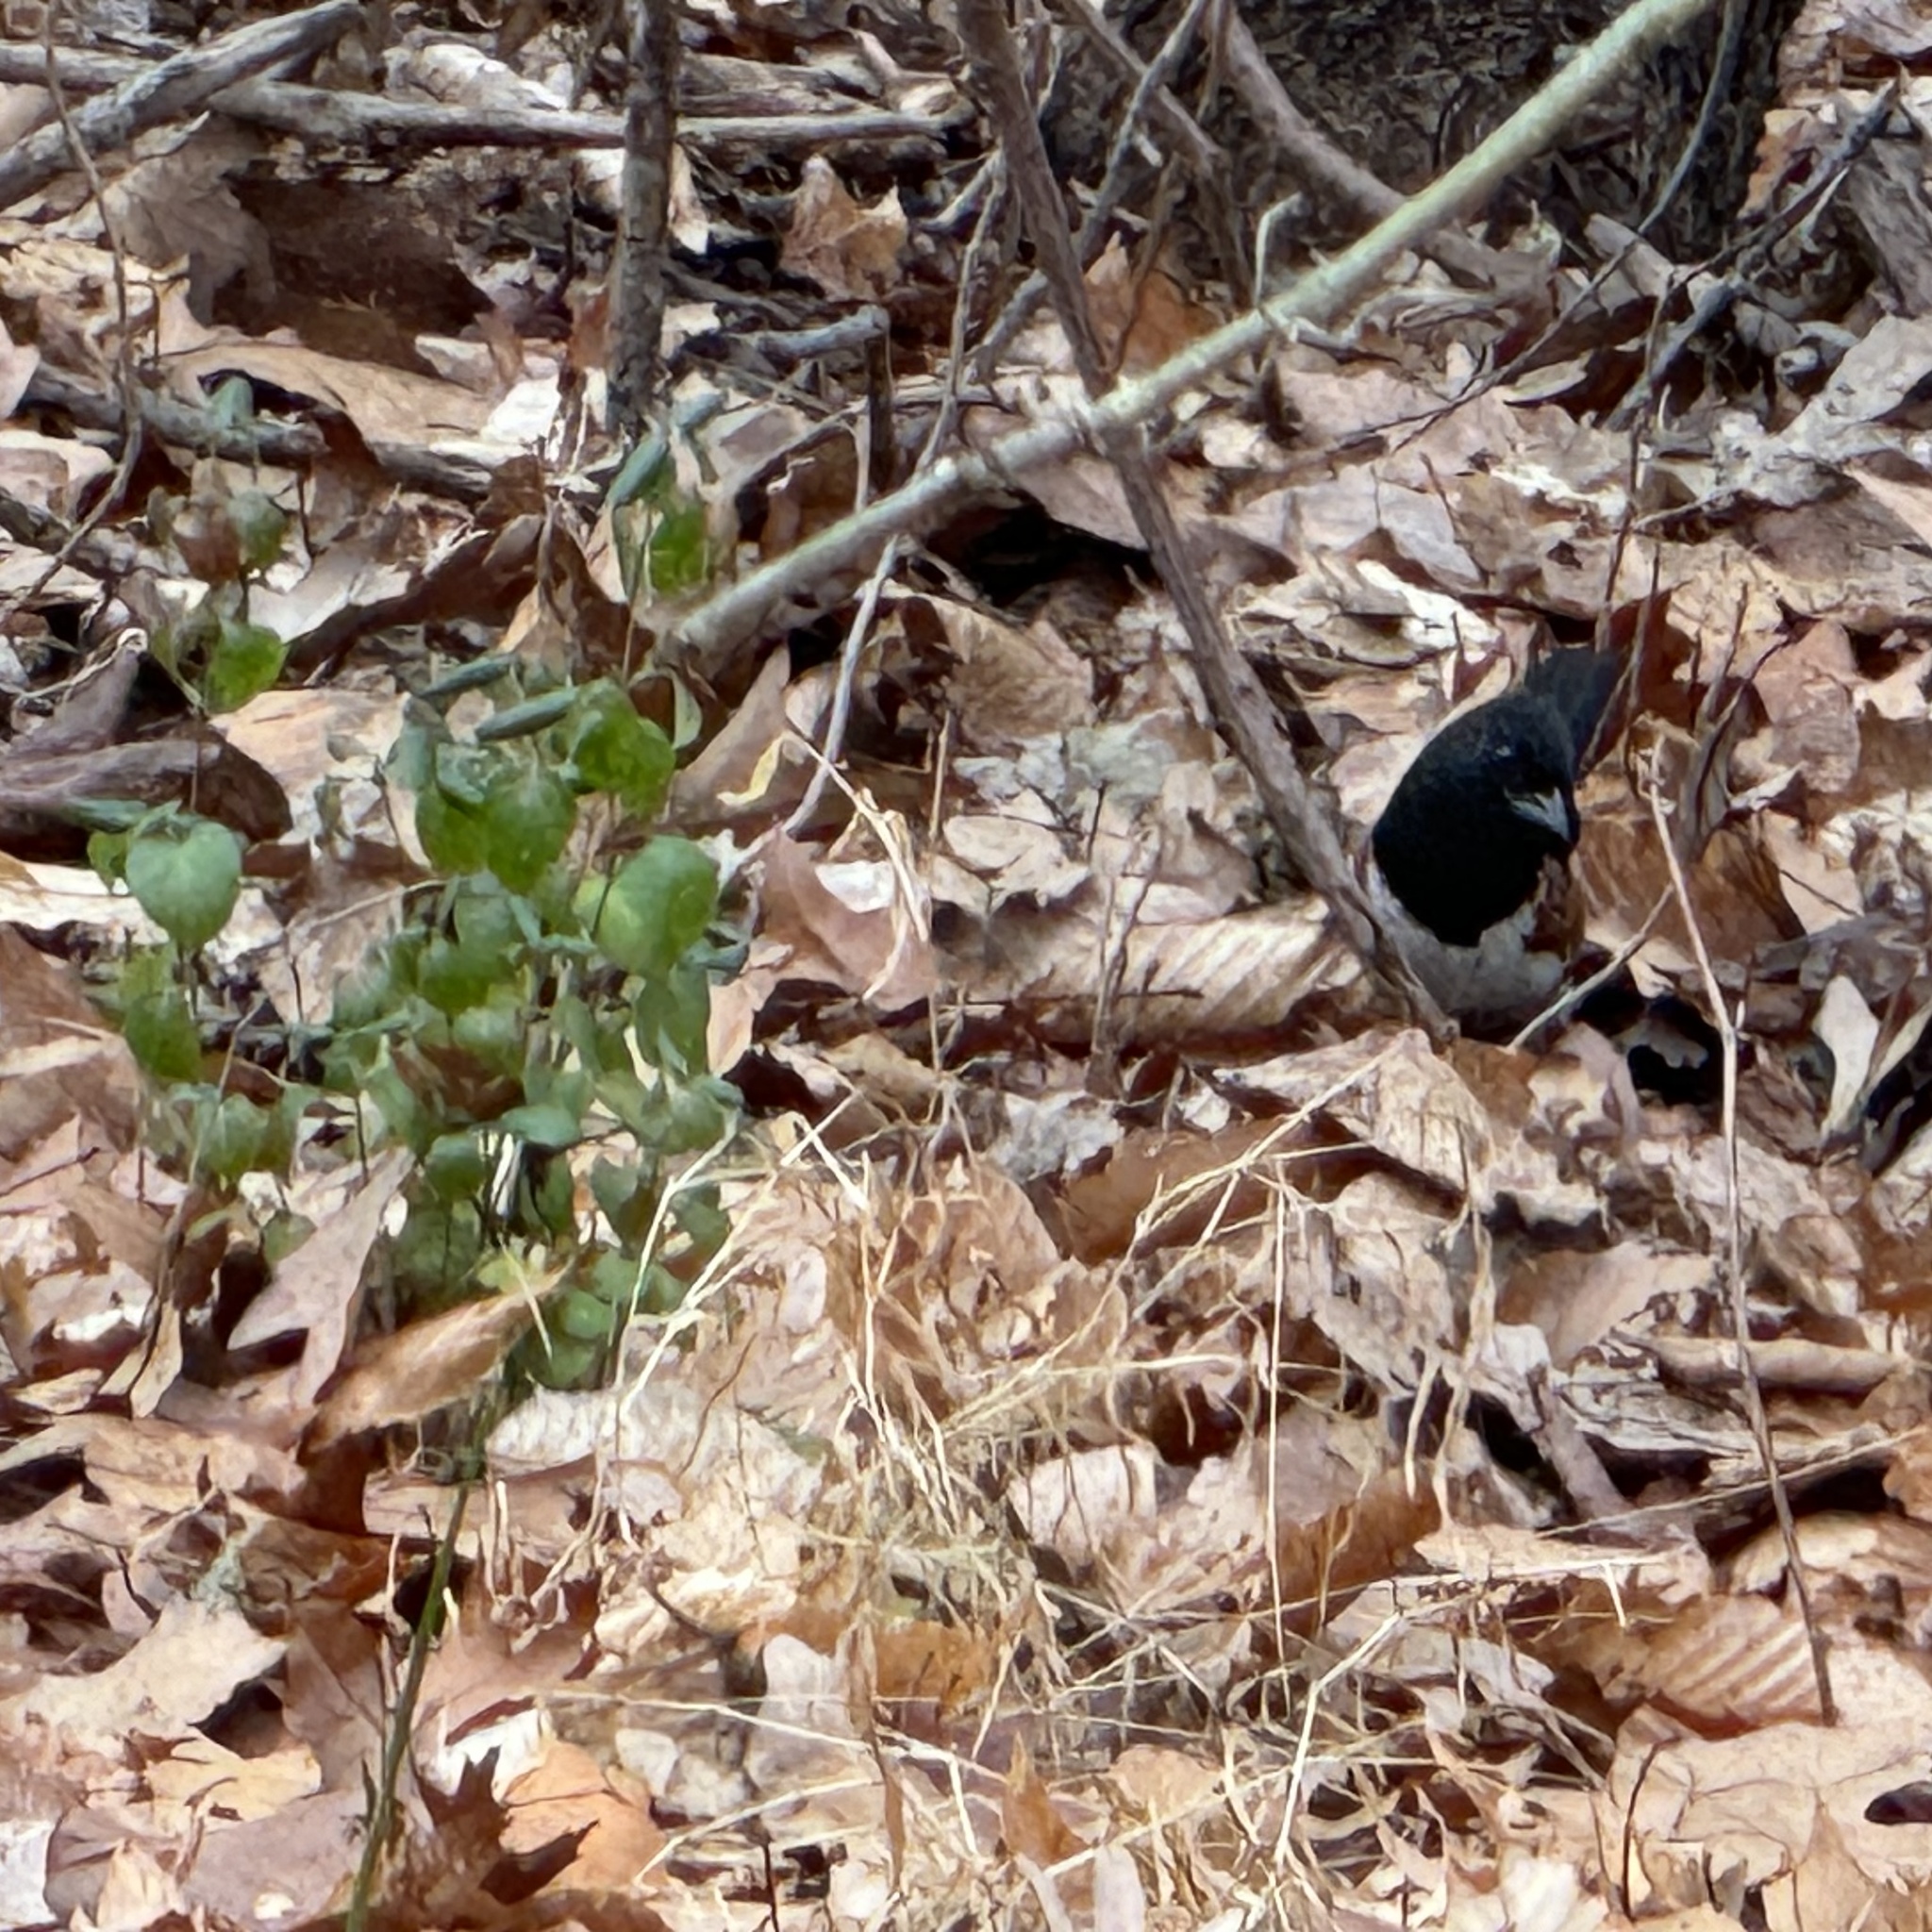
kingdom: Animalia
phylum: Chordata
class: Aves
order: Passeriformes
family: Passerellidae
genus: Pipilo
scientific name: Pipilo erythrophthalmus
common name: Eastern towhee
